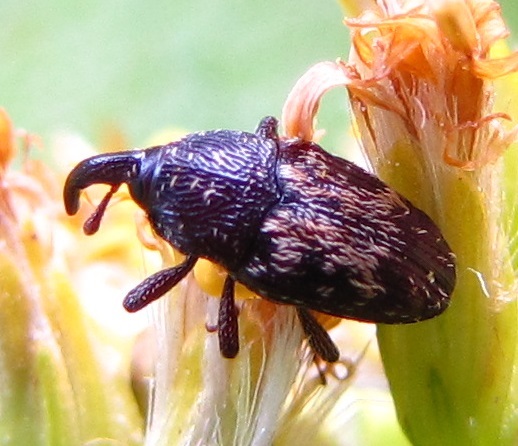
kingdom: Animalia
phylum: Arthropoda
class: Insecta
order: Coleoptera
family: Curculionidae
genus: Glyptobaris
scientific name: Glyptobaris lecontei
